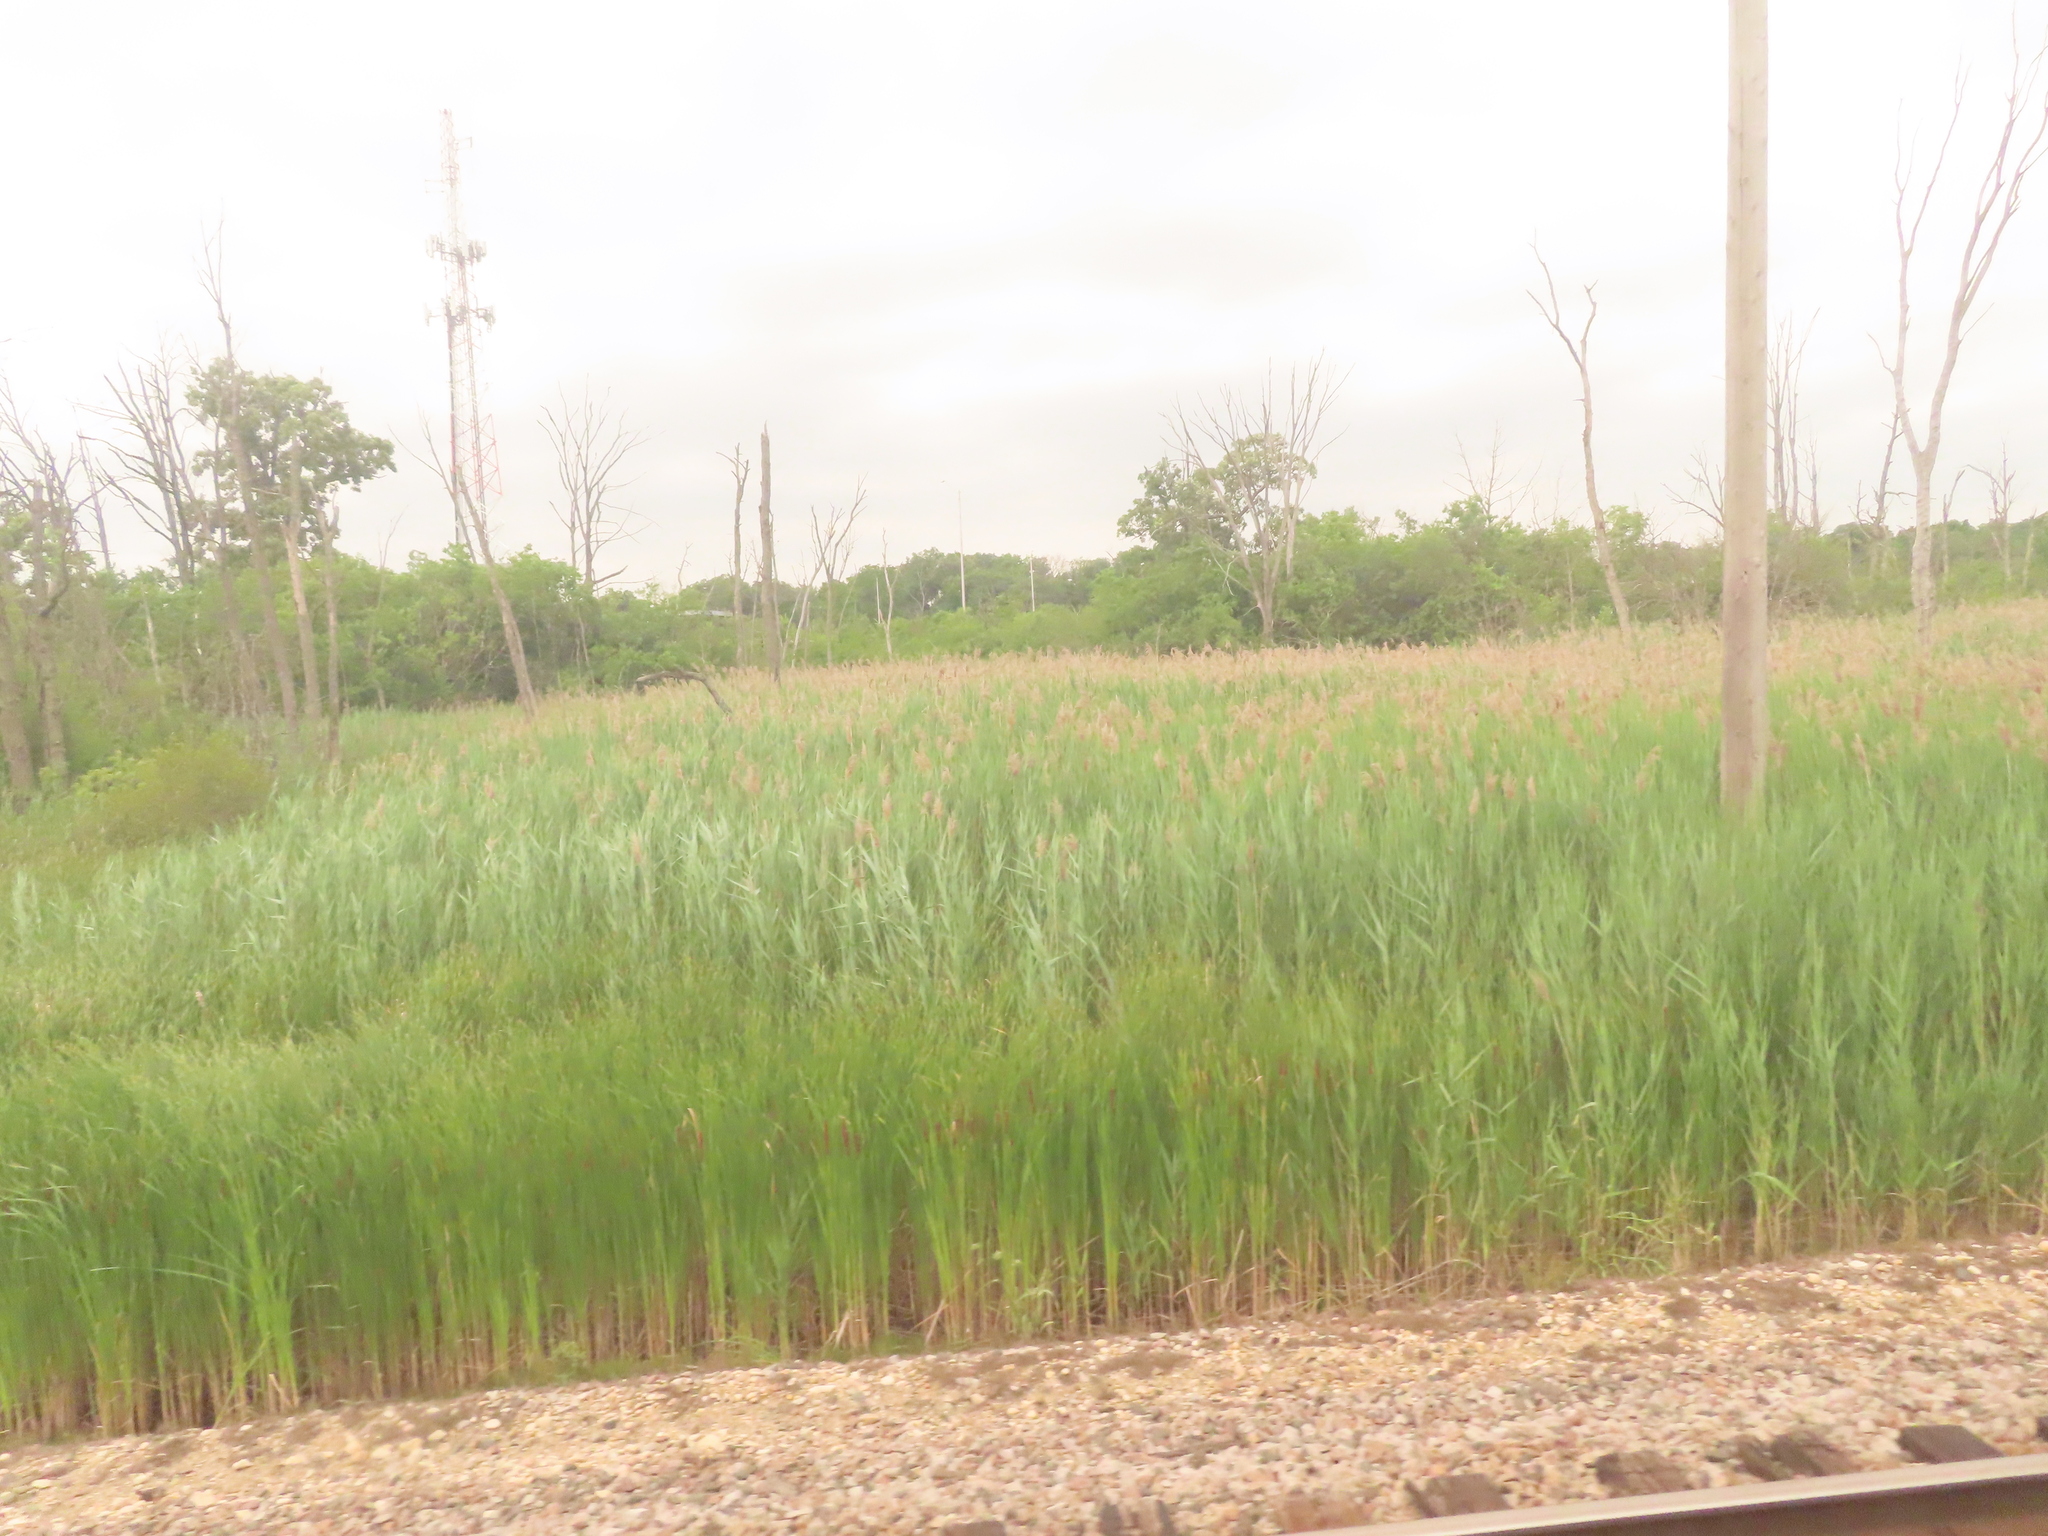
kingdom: Plantae
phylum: Tracheophyta
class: Liliopsida
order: Poales
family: Poaceae
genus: Phragmites
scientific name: Phragmites australis
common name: Common reed
